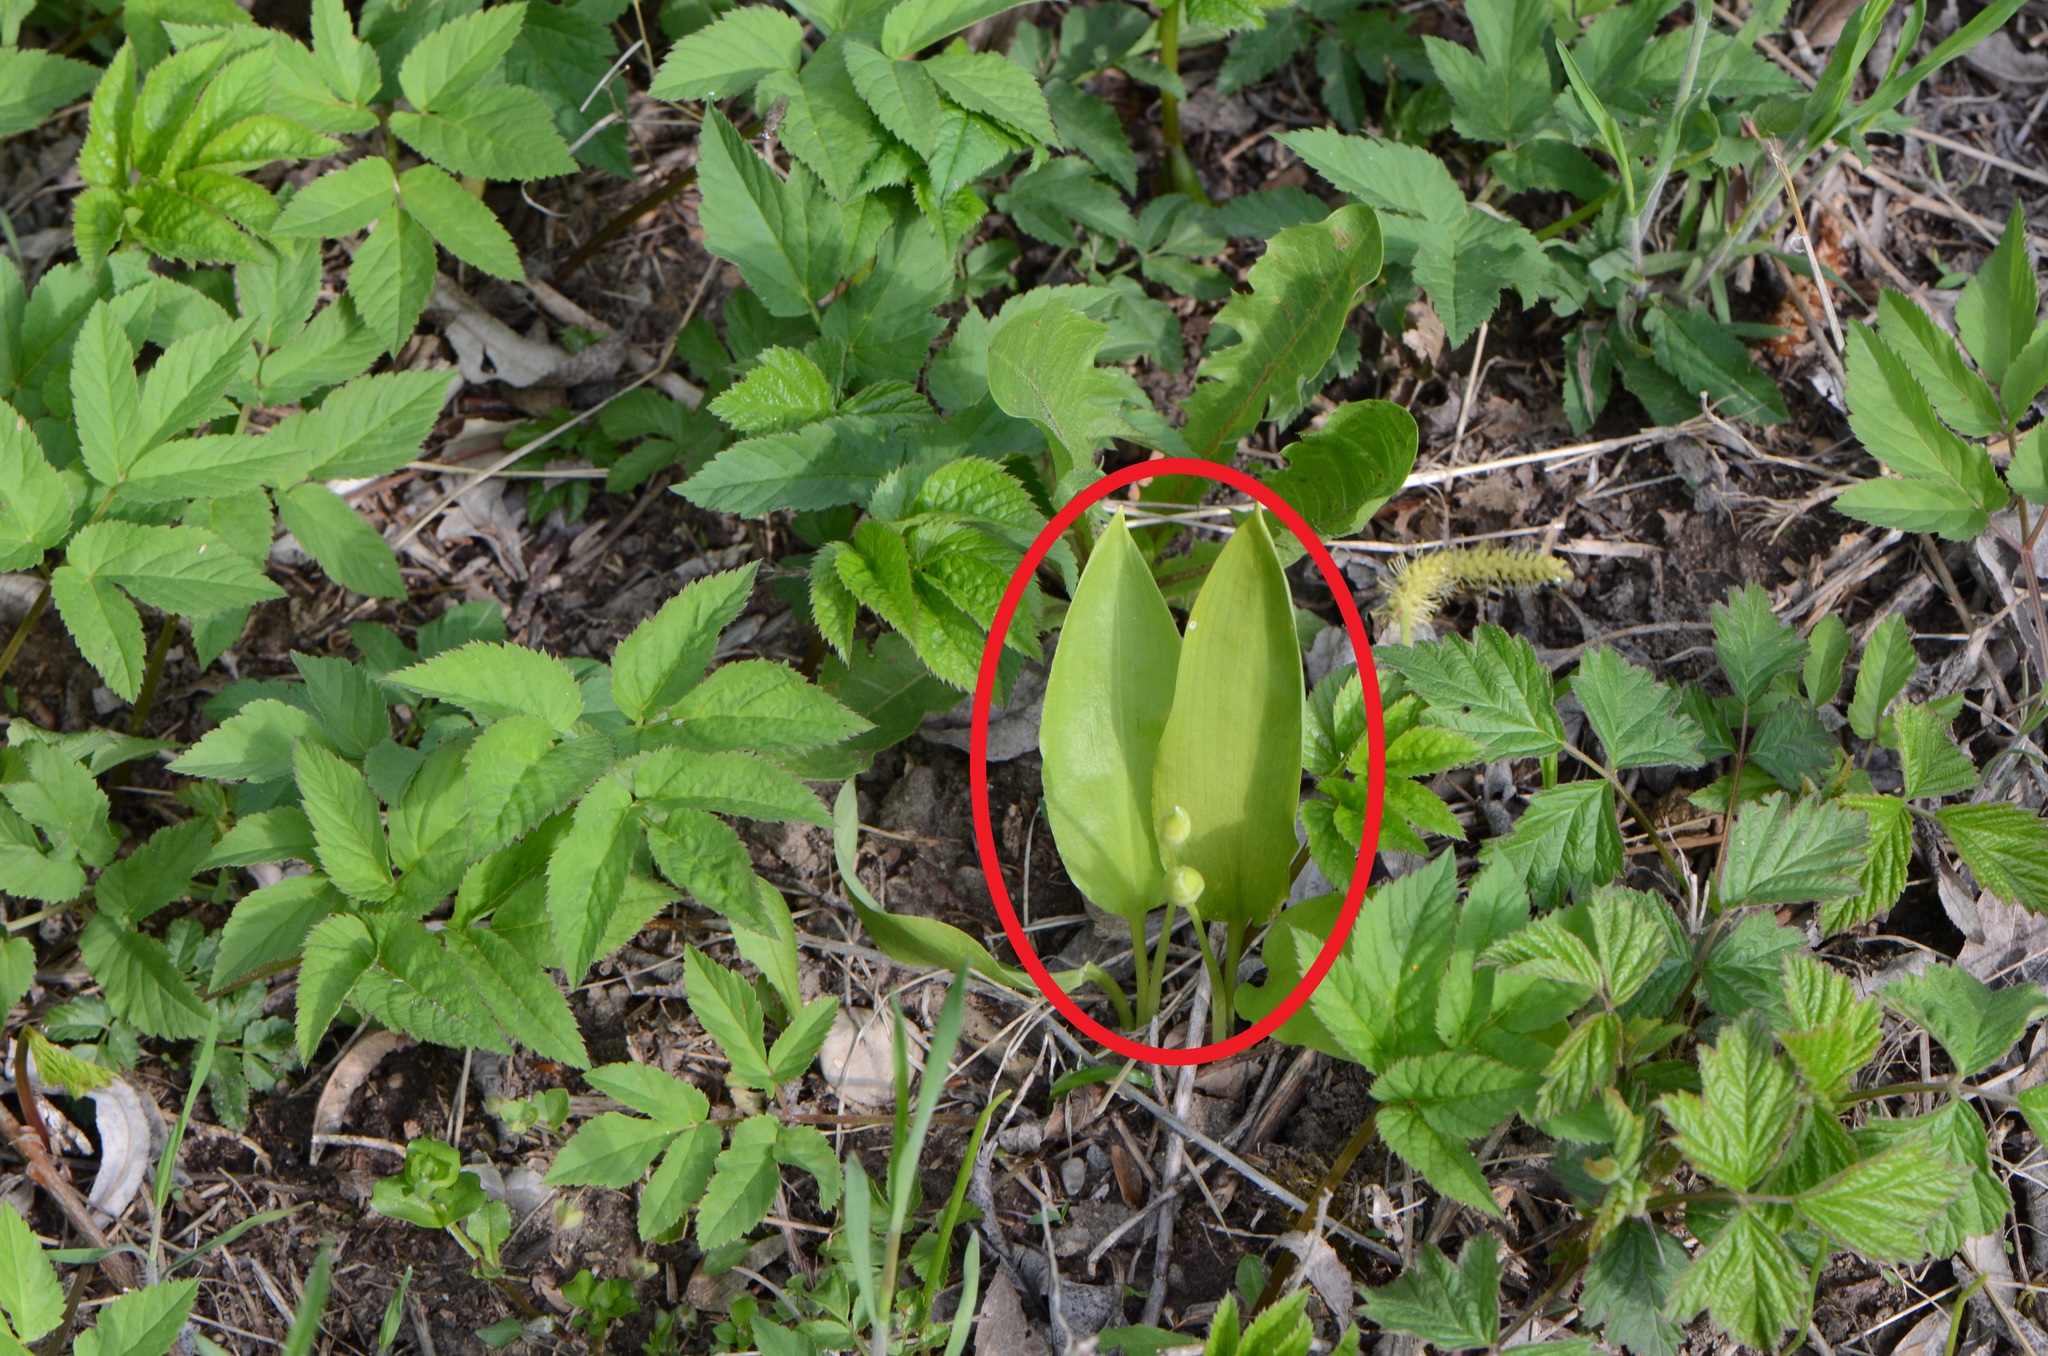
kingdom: Plantae
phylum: Tracheophyta
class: Liliopsida
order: Asparagales
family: Amaryllidaceae
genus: Allium
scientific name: Allium ursinum
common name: Ramsons
